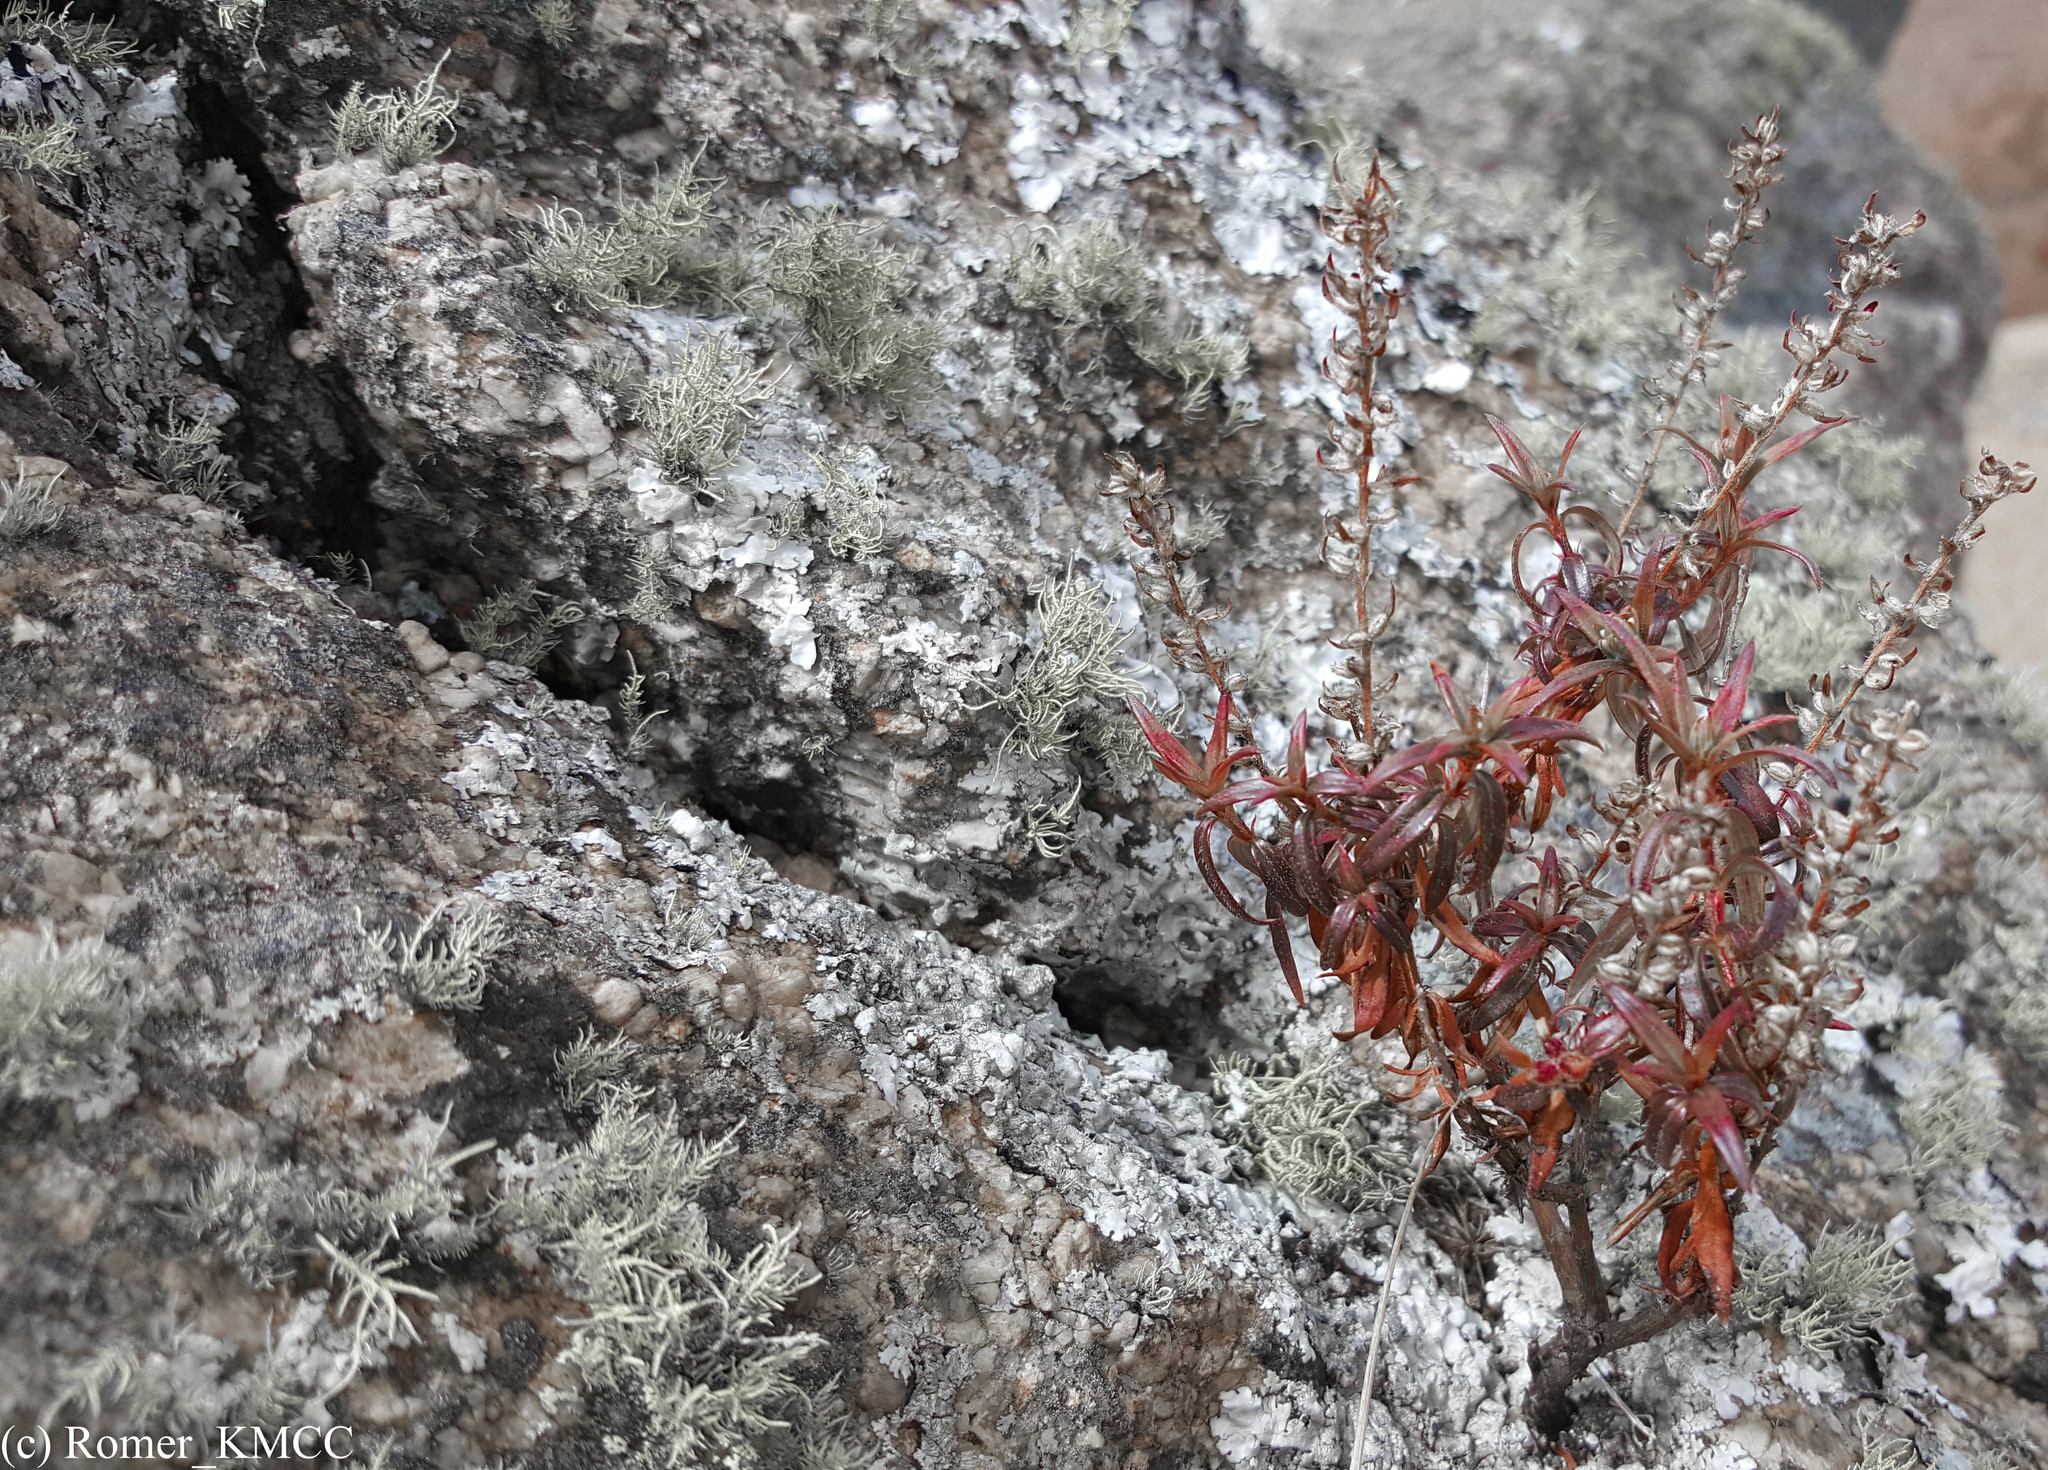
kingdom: Plantae
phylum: Tracheophyta
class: Magnoliopsida
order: Gentianales
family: Rubiaceae
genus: Otiophora
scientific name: Otiophora scabra
